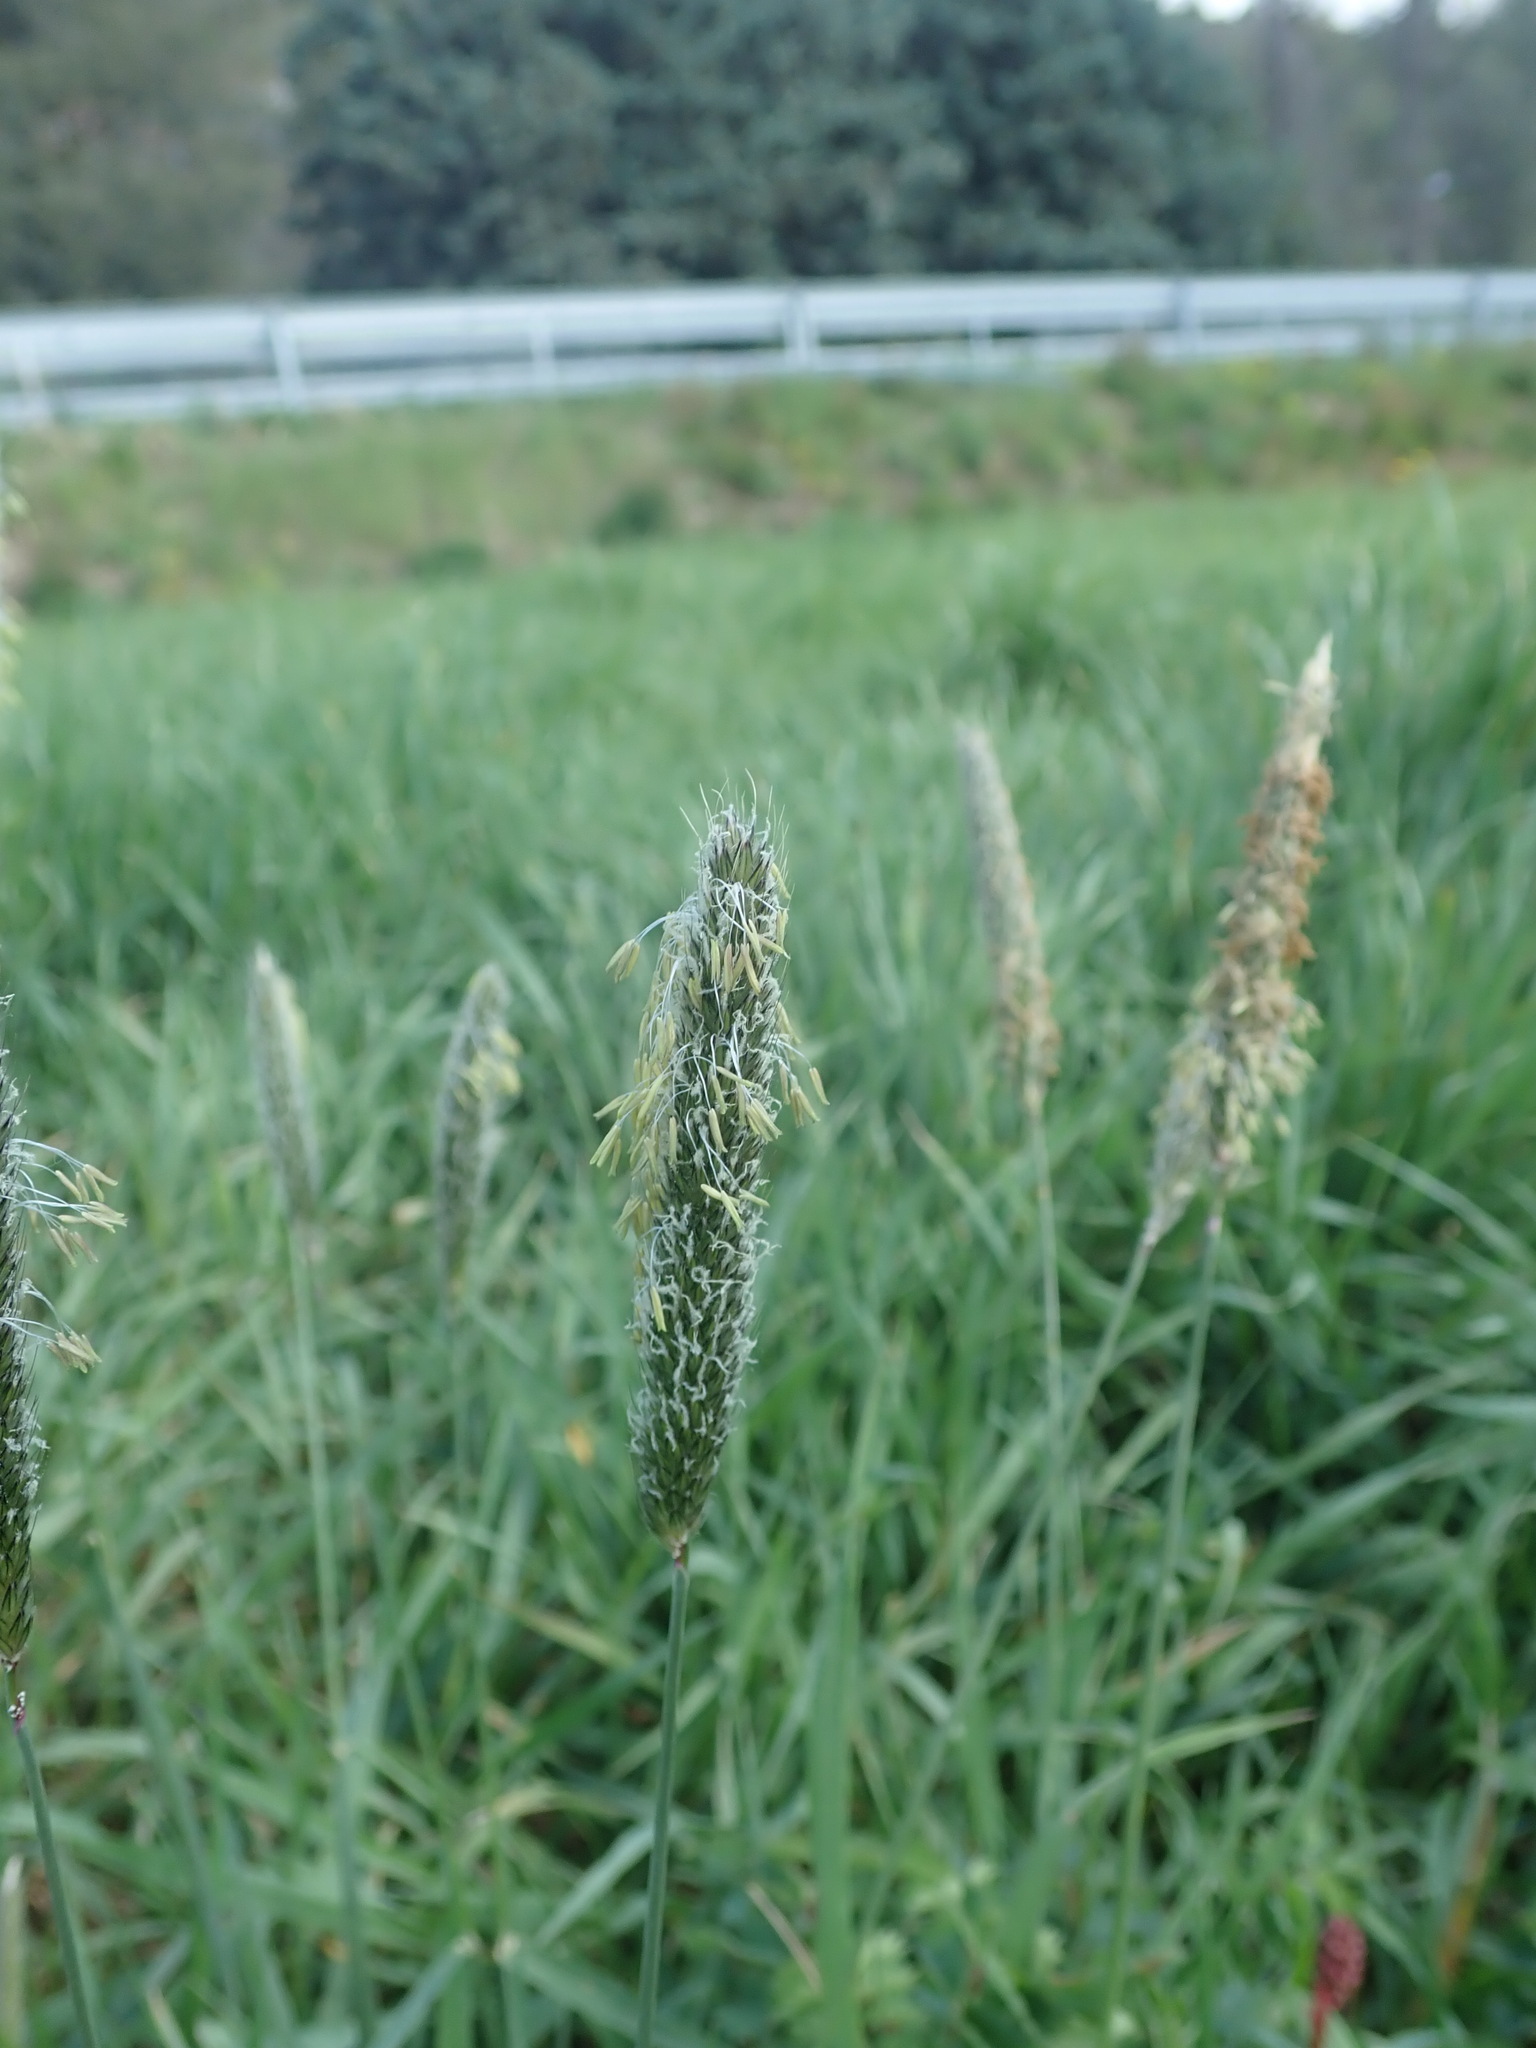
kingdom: Plantae
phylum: Tracheophyta
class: Liliopsida
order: Poales
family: Poaceae
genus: Alopecurus
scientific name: Alopecurus pratensis
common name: Meadow foxtail
